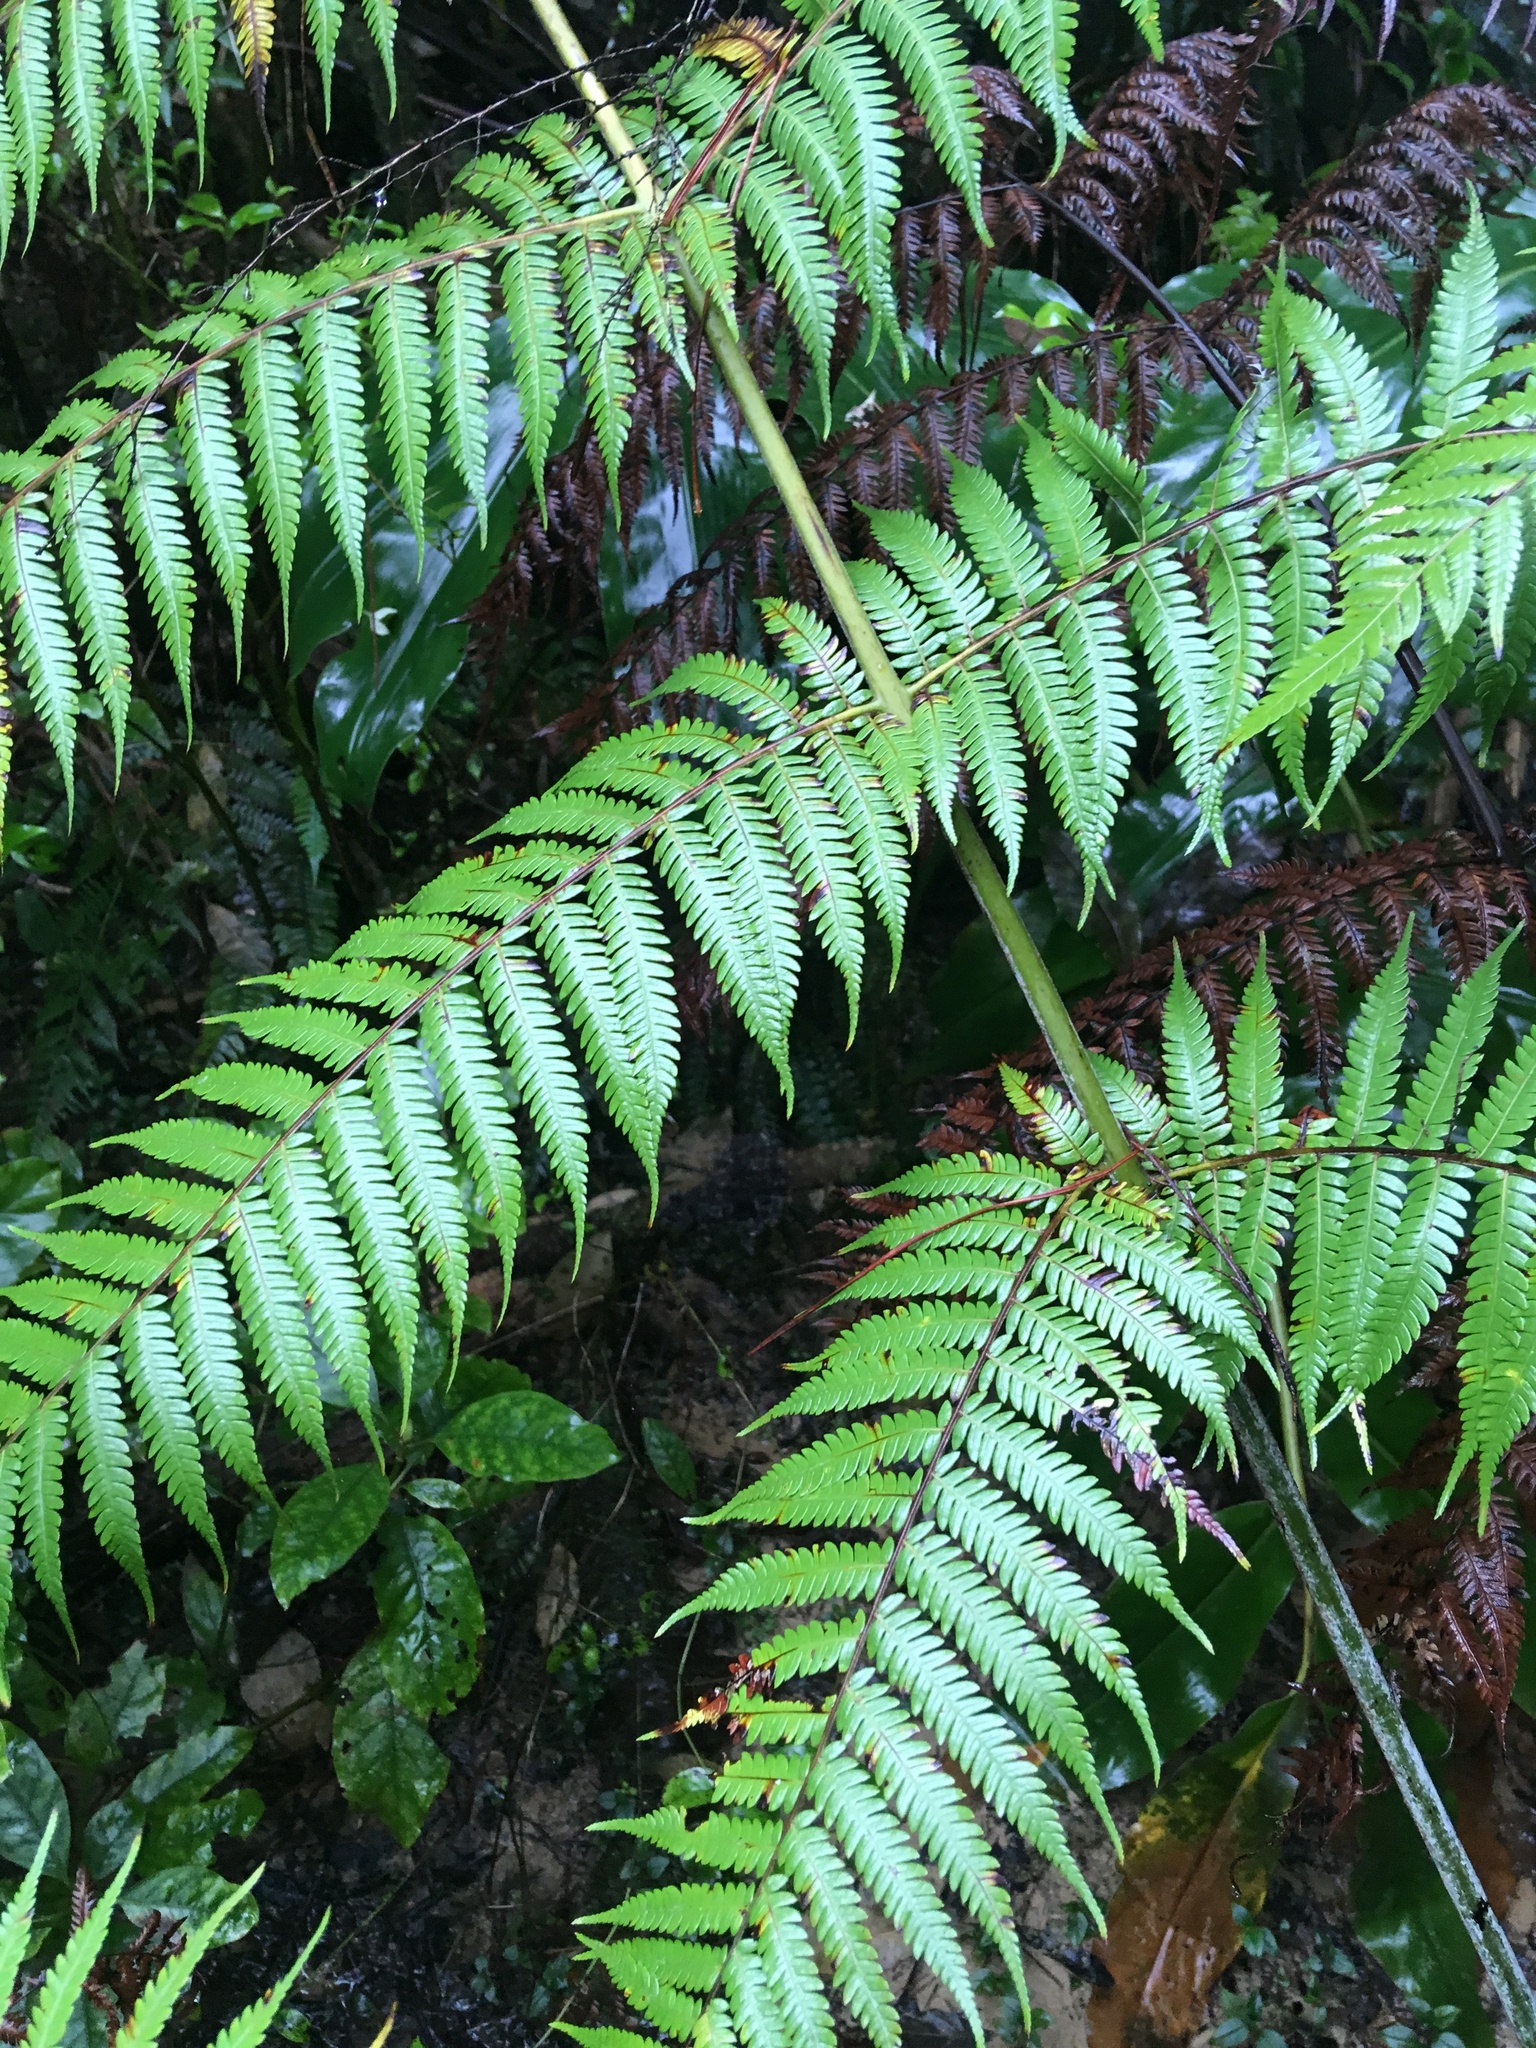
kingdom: Plantae
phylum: Tracheophyta
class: Polypodiopsida
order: Cyatheales
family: Cyatheaceae
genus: Alsophila
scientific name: Alsophila dealbata
